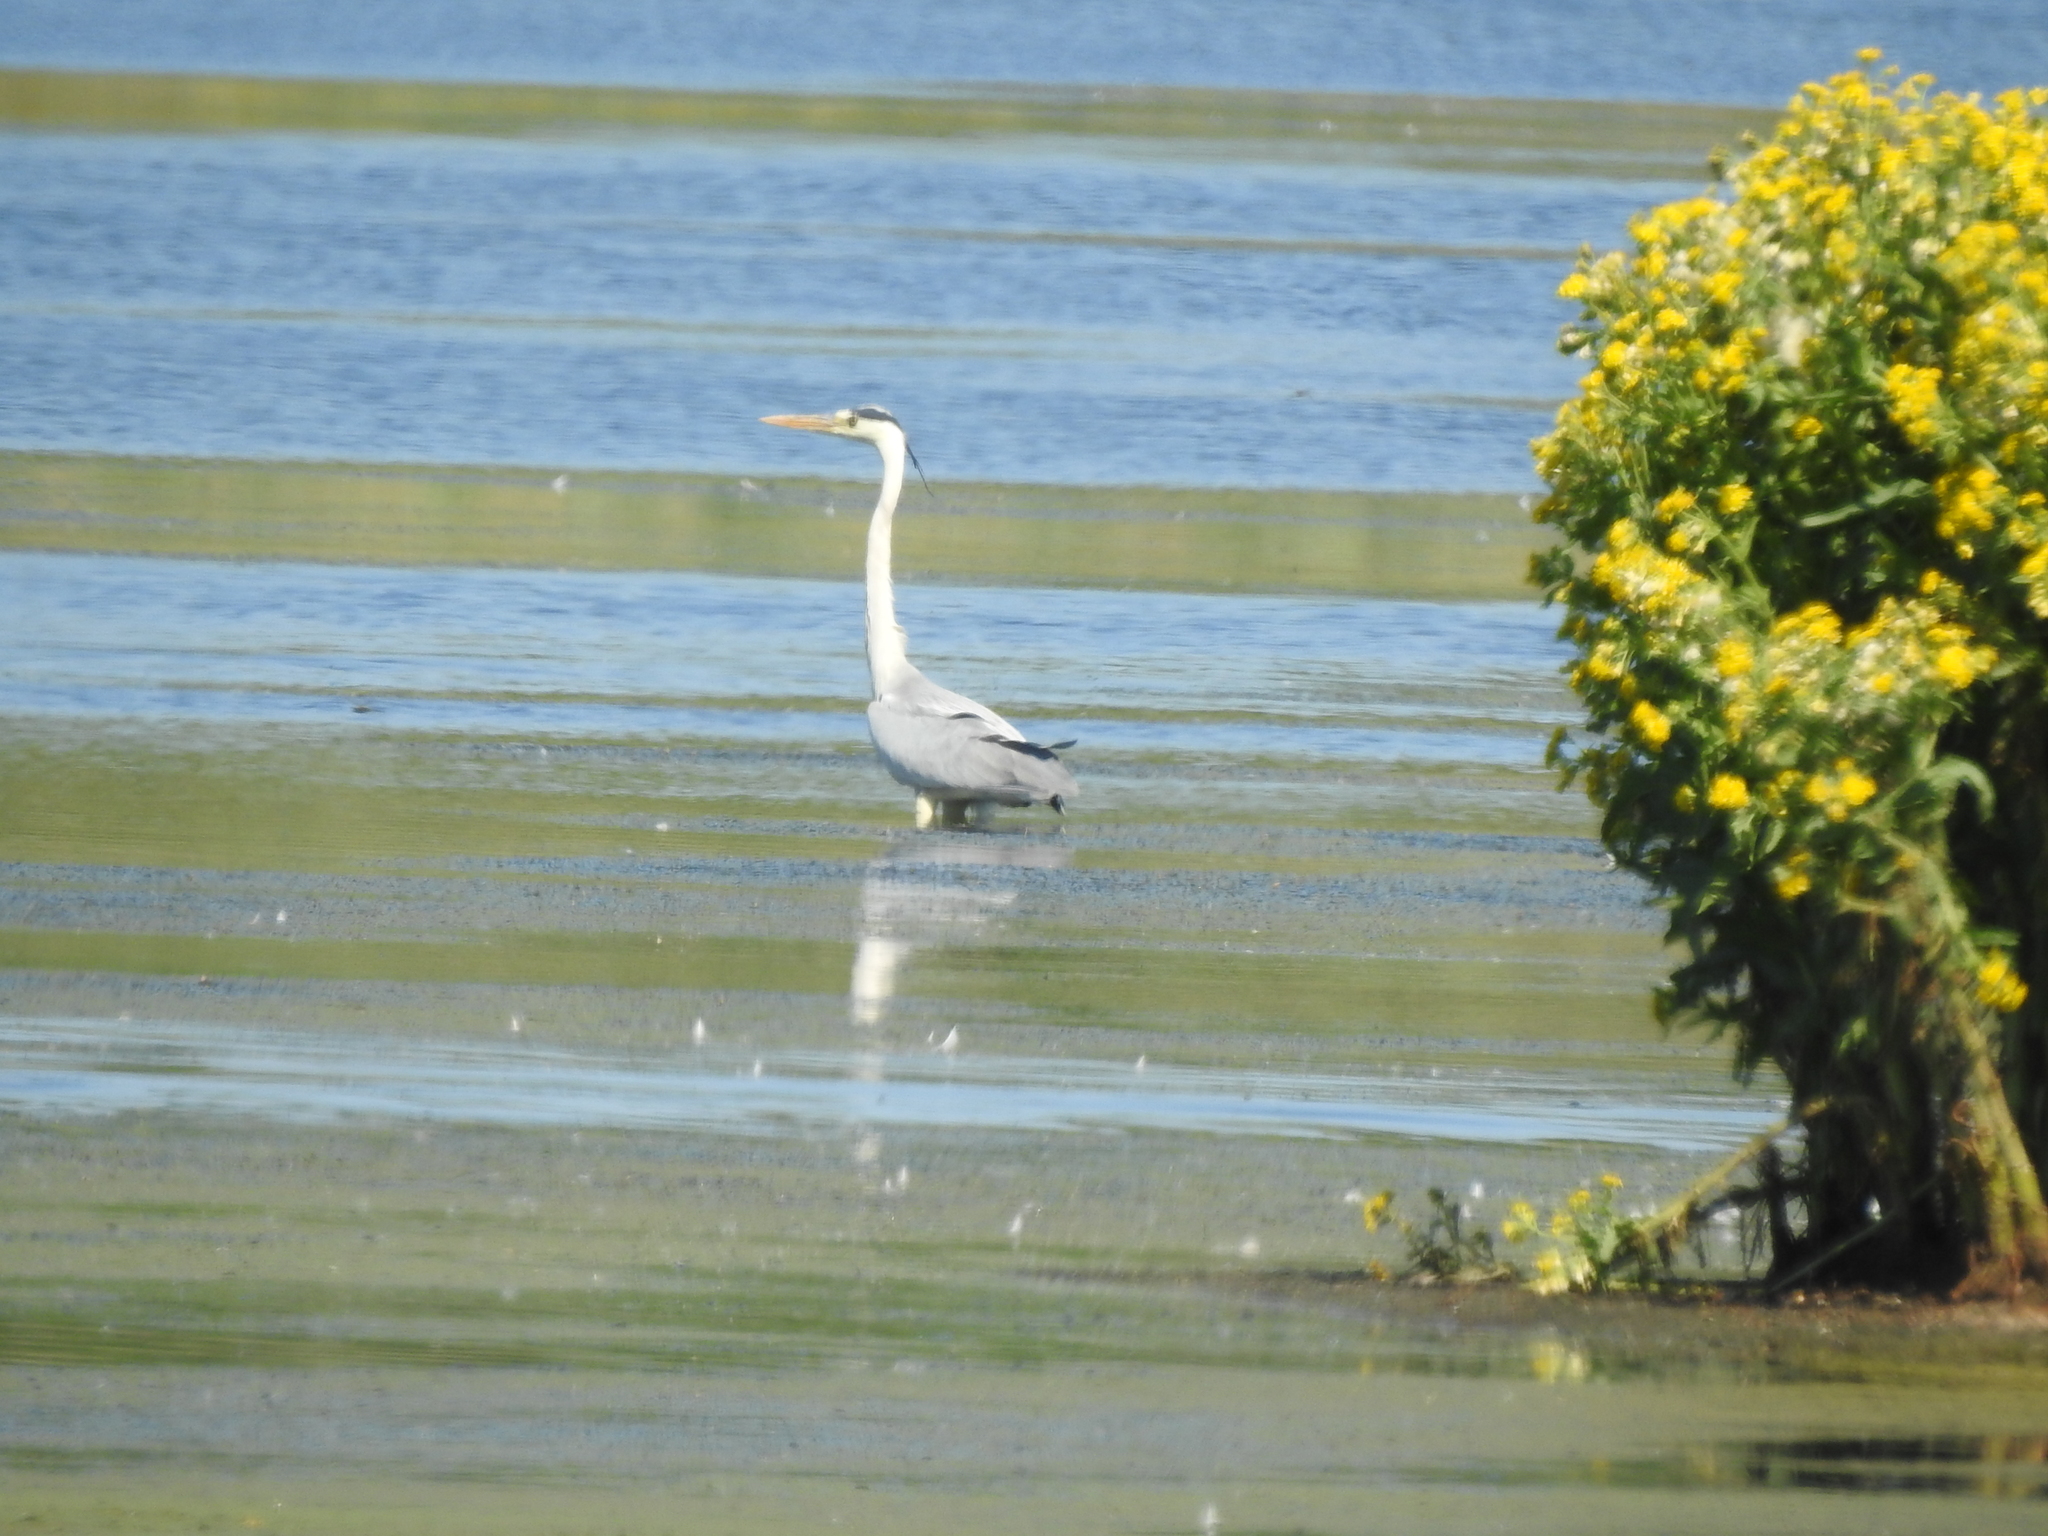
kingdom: Animalia
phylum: Chordata
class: Aves
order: Pelecaniformes
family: Ardeidae
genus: Ardea
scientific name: Ardea cinerea
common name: Grey heron
